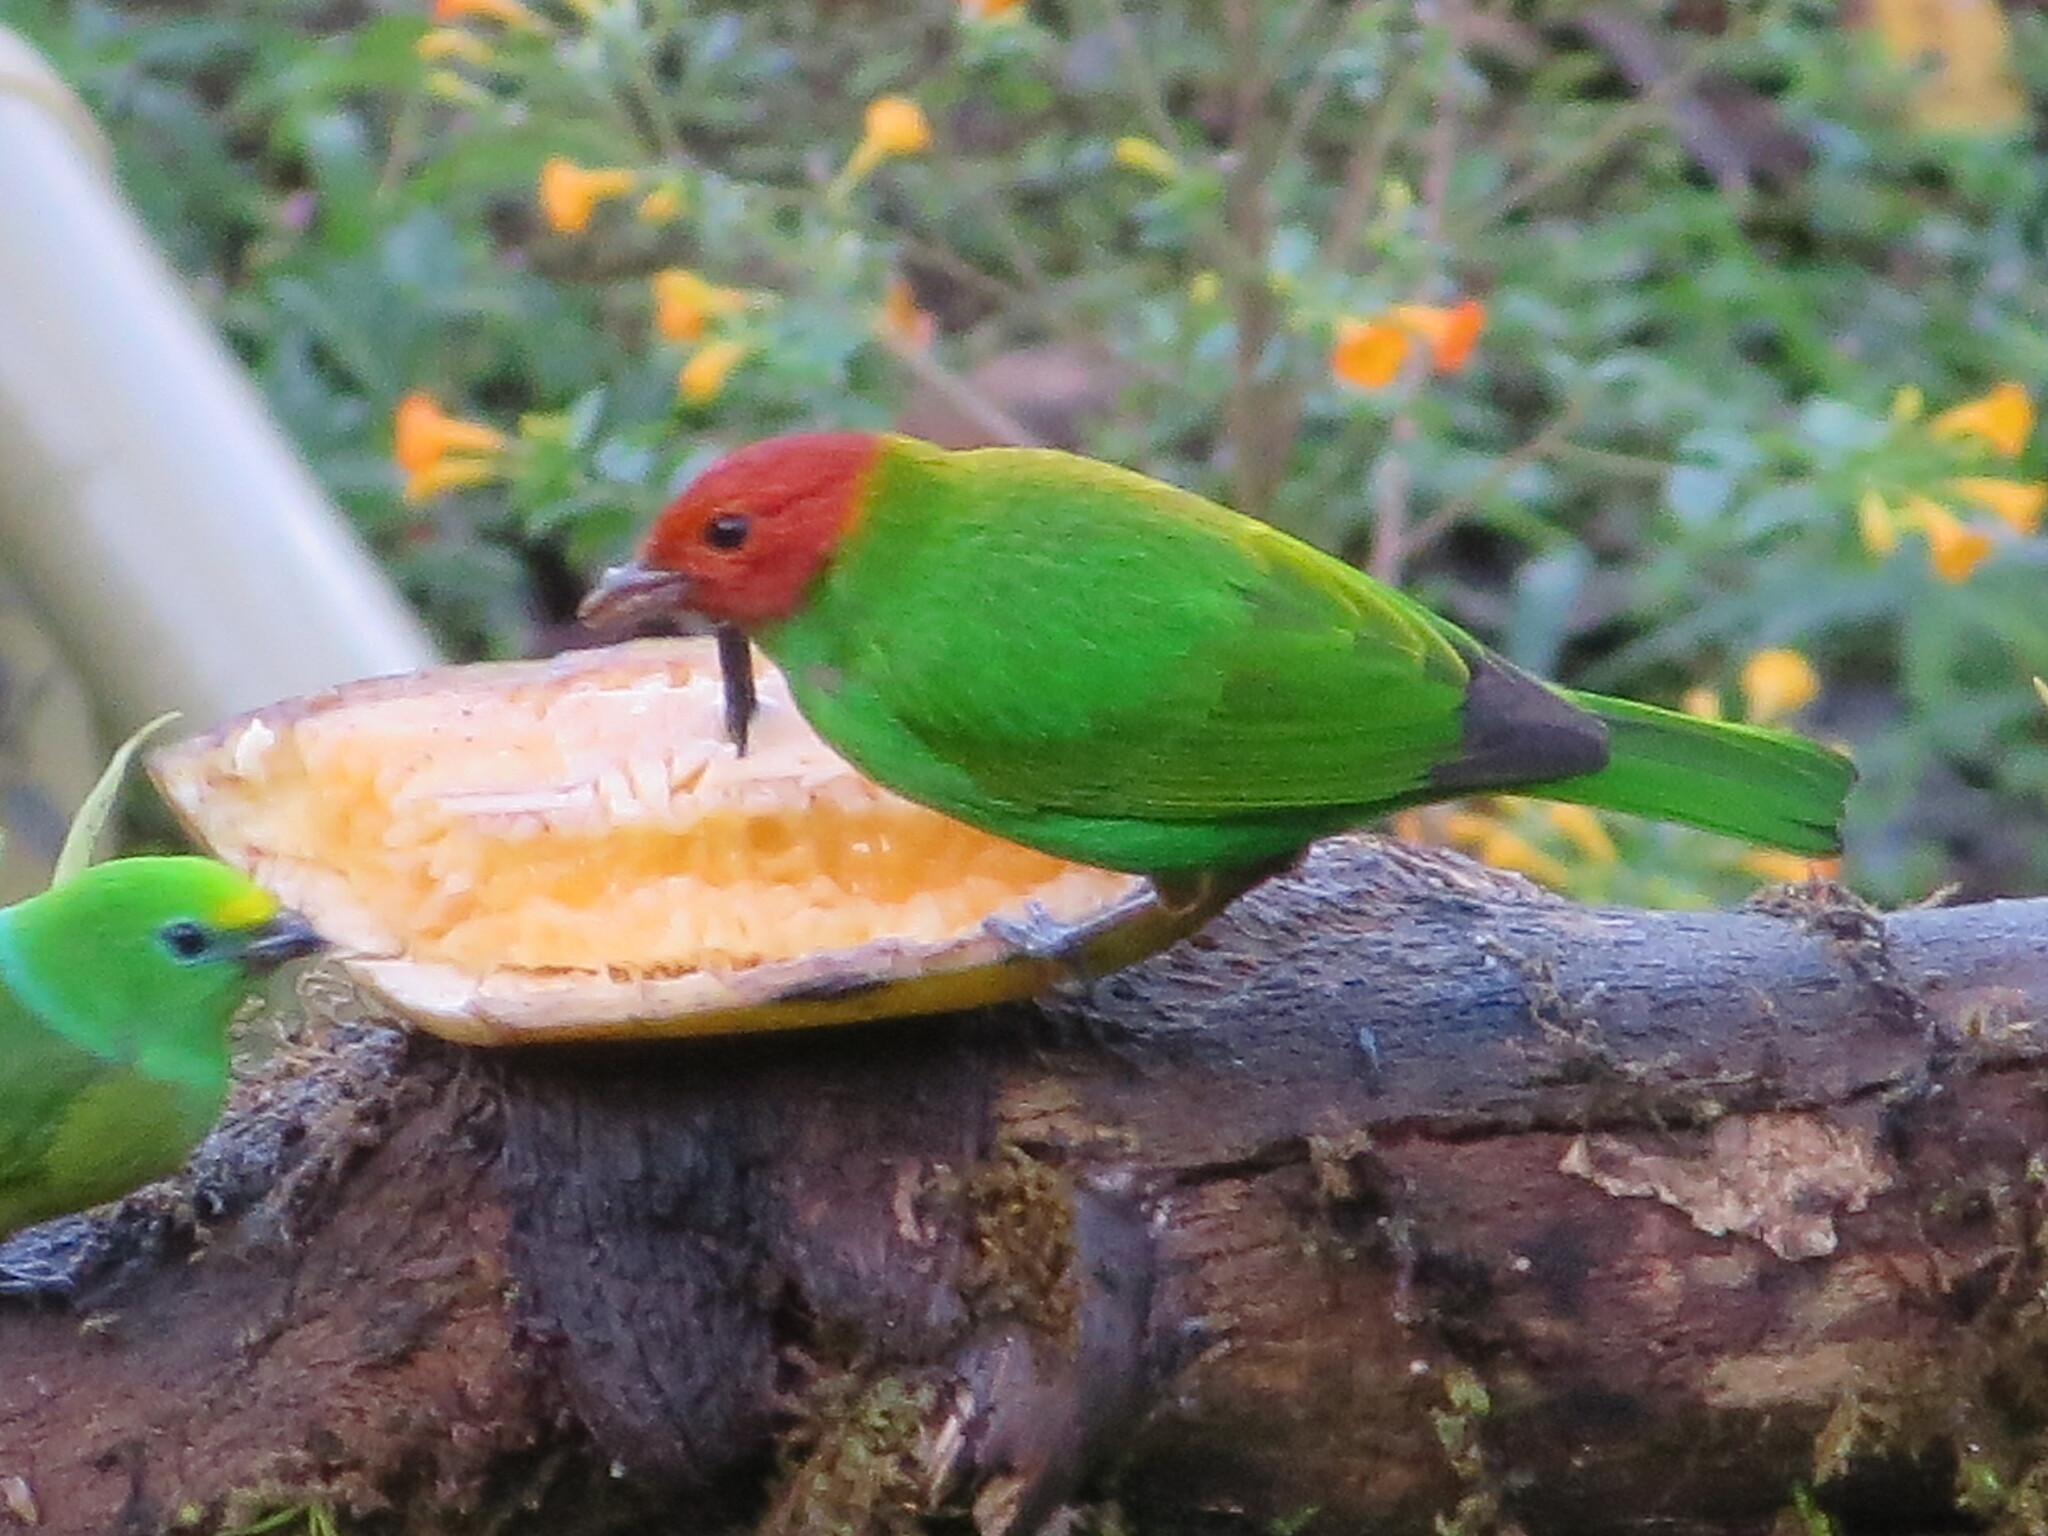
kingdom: Animalia
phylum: Chordata
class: Aves
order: Passeriformes
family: Thraupidae
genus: Tangara
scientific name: Tangara gyrola
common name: Bay-headed tanager
